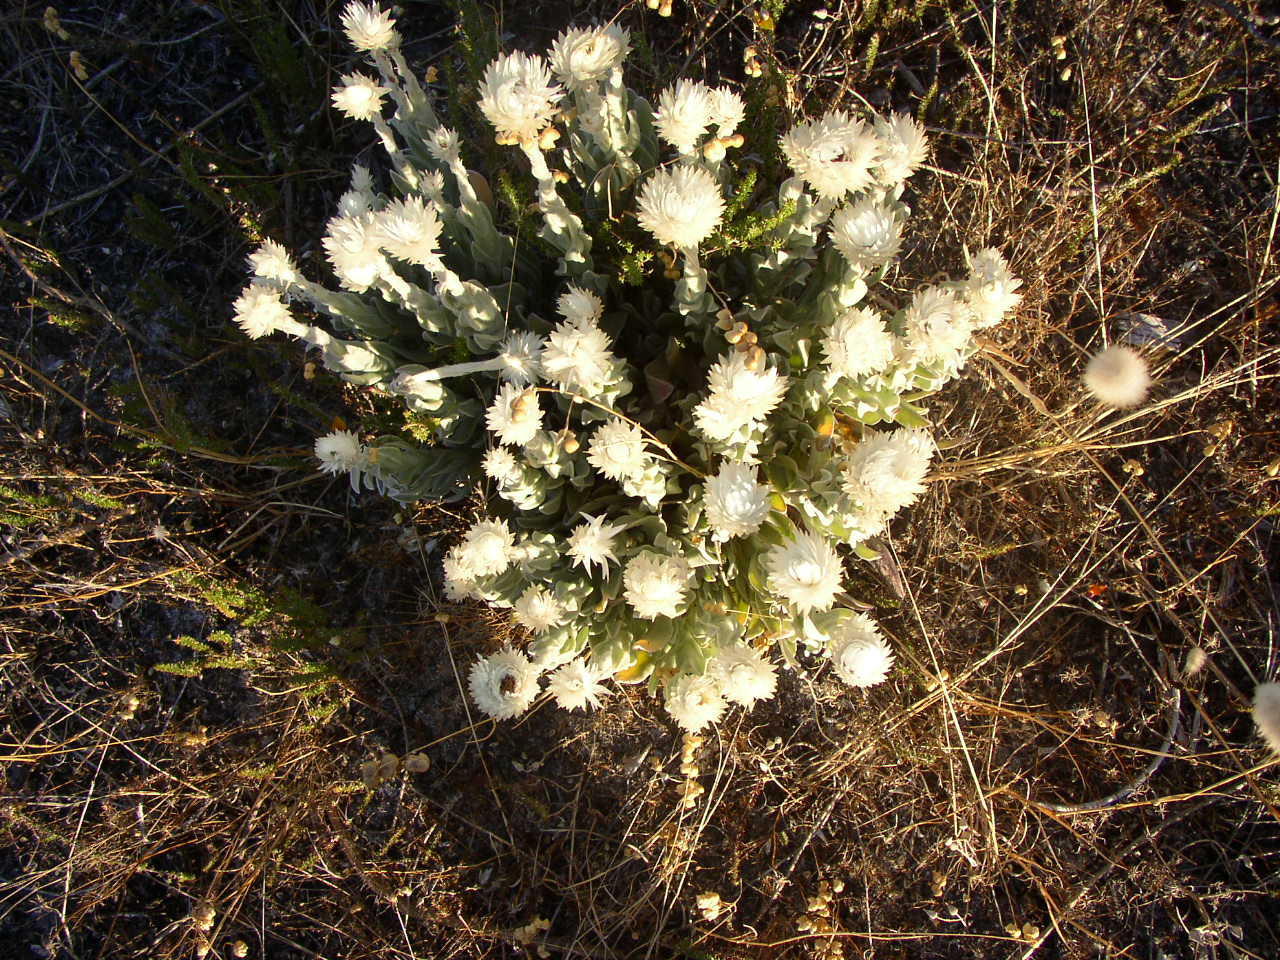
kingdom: Plantae
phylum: Tracheophyta
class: Magnoliopsida
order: Asterales
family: Asteraceae
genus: Syncarpha
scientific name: Syncarpha vestita
